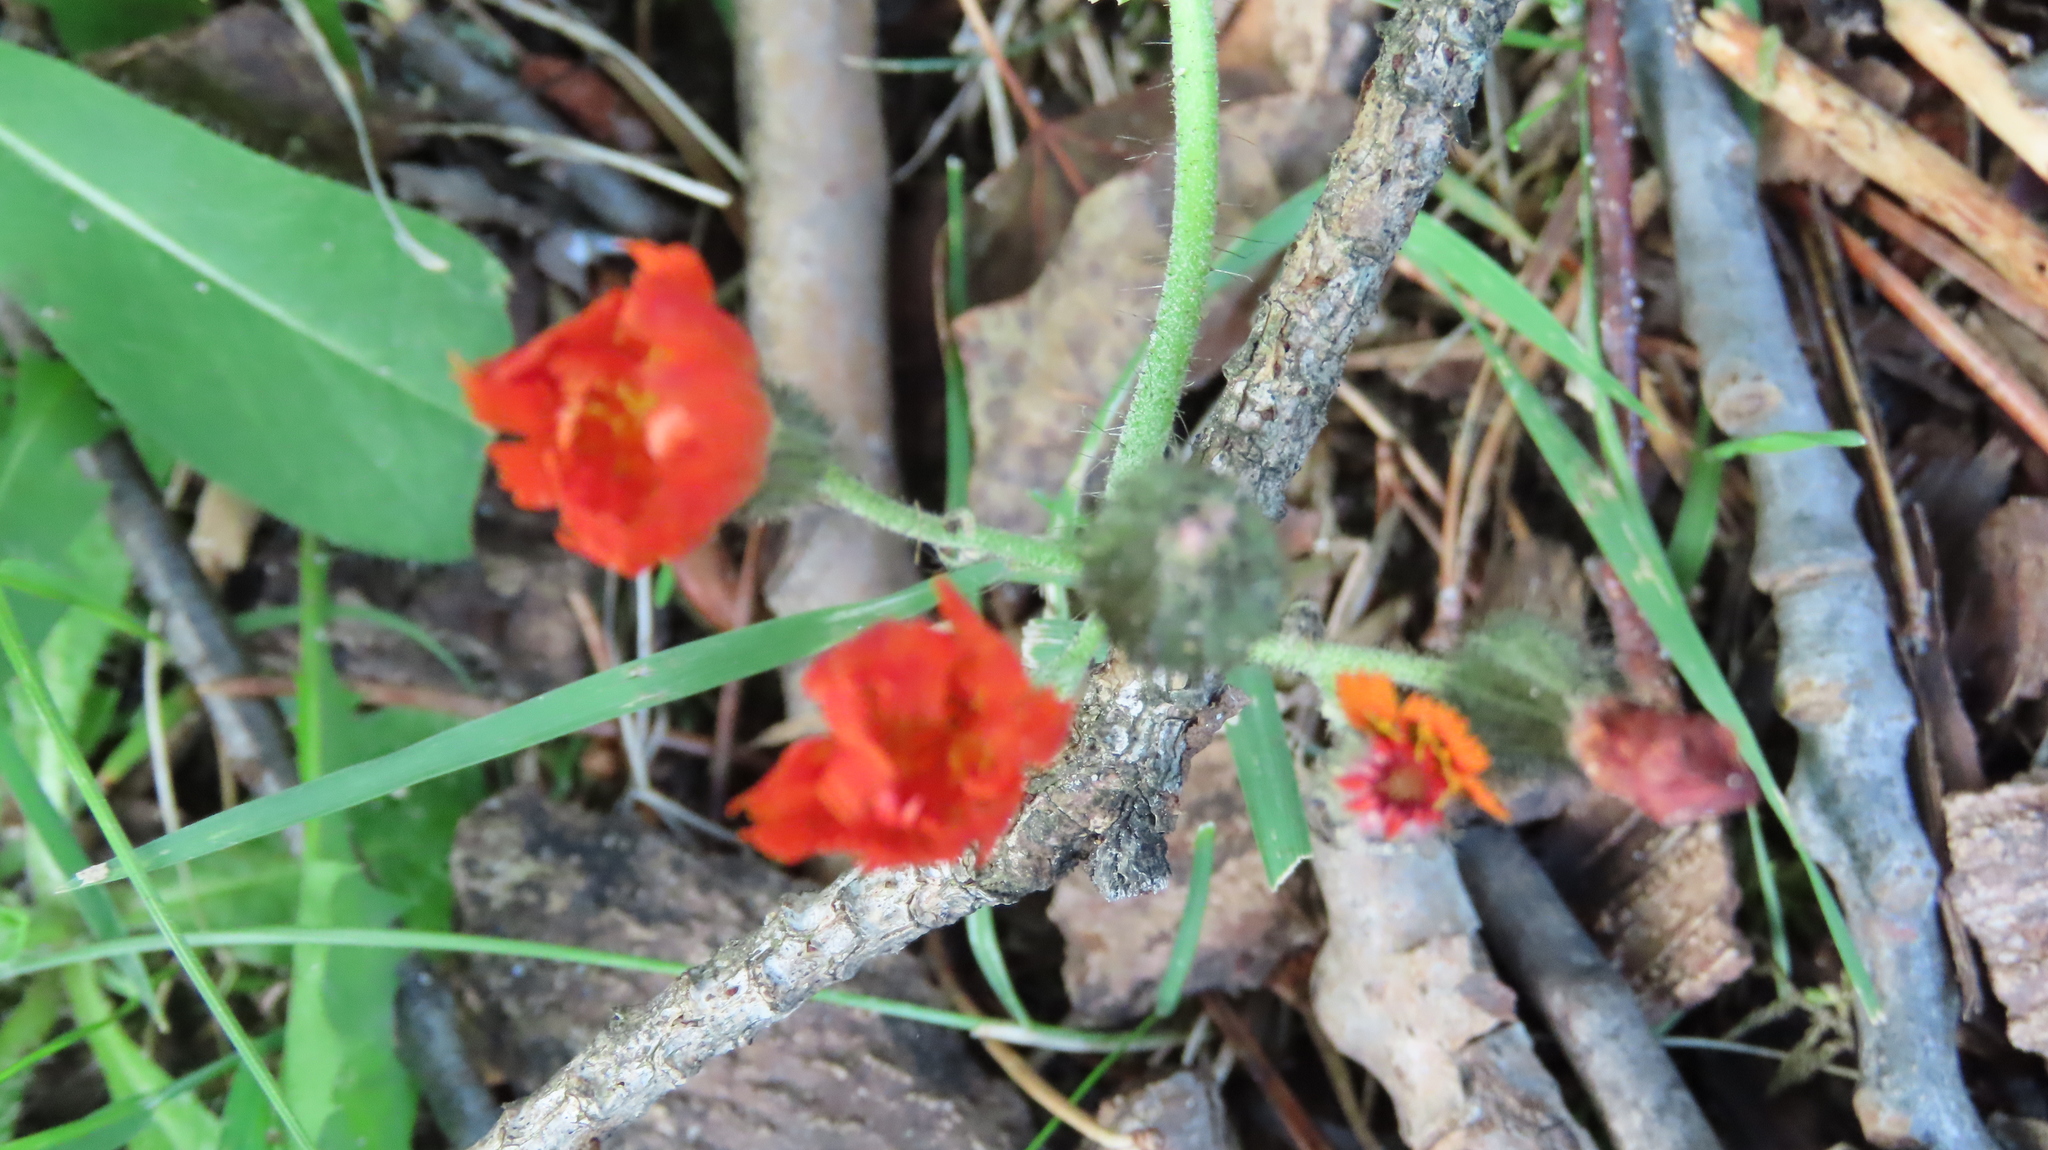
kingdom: Plantae
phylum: Tracheophyta
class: Magnoliopsida
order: Asterales
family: Asteraceae
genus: Pilosella
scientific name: Pilosella aurantiaca
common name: Fox-and-cubs
